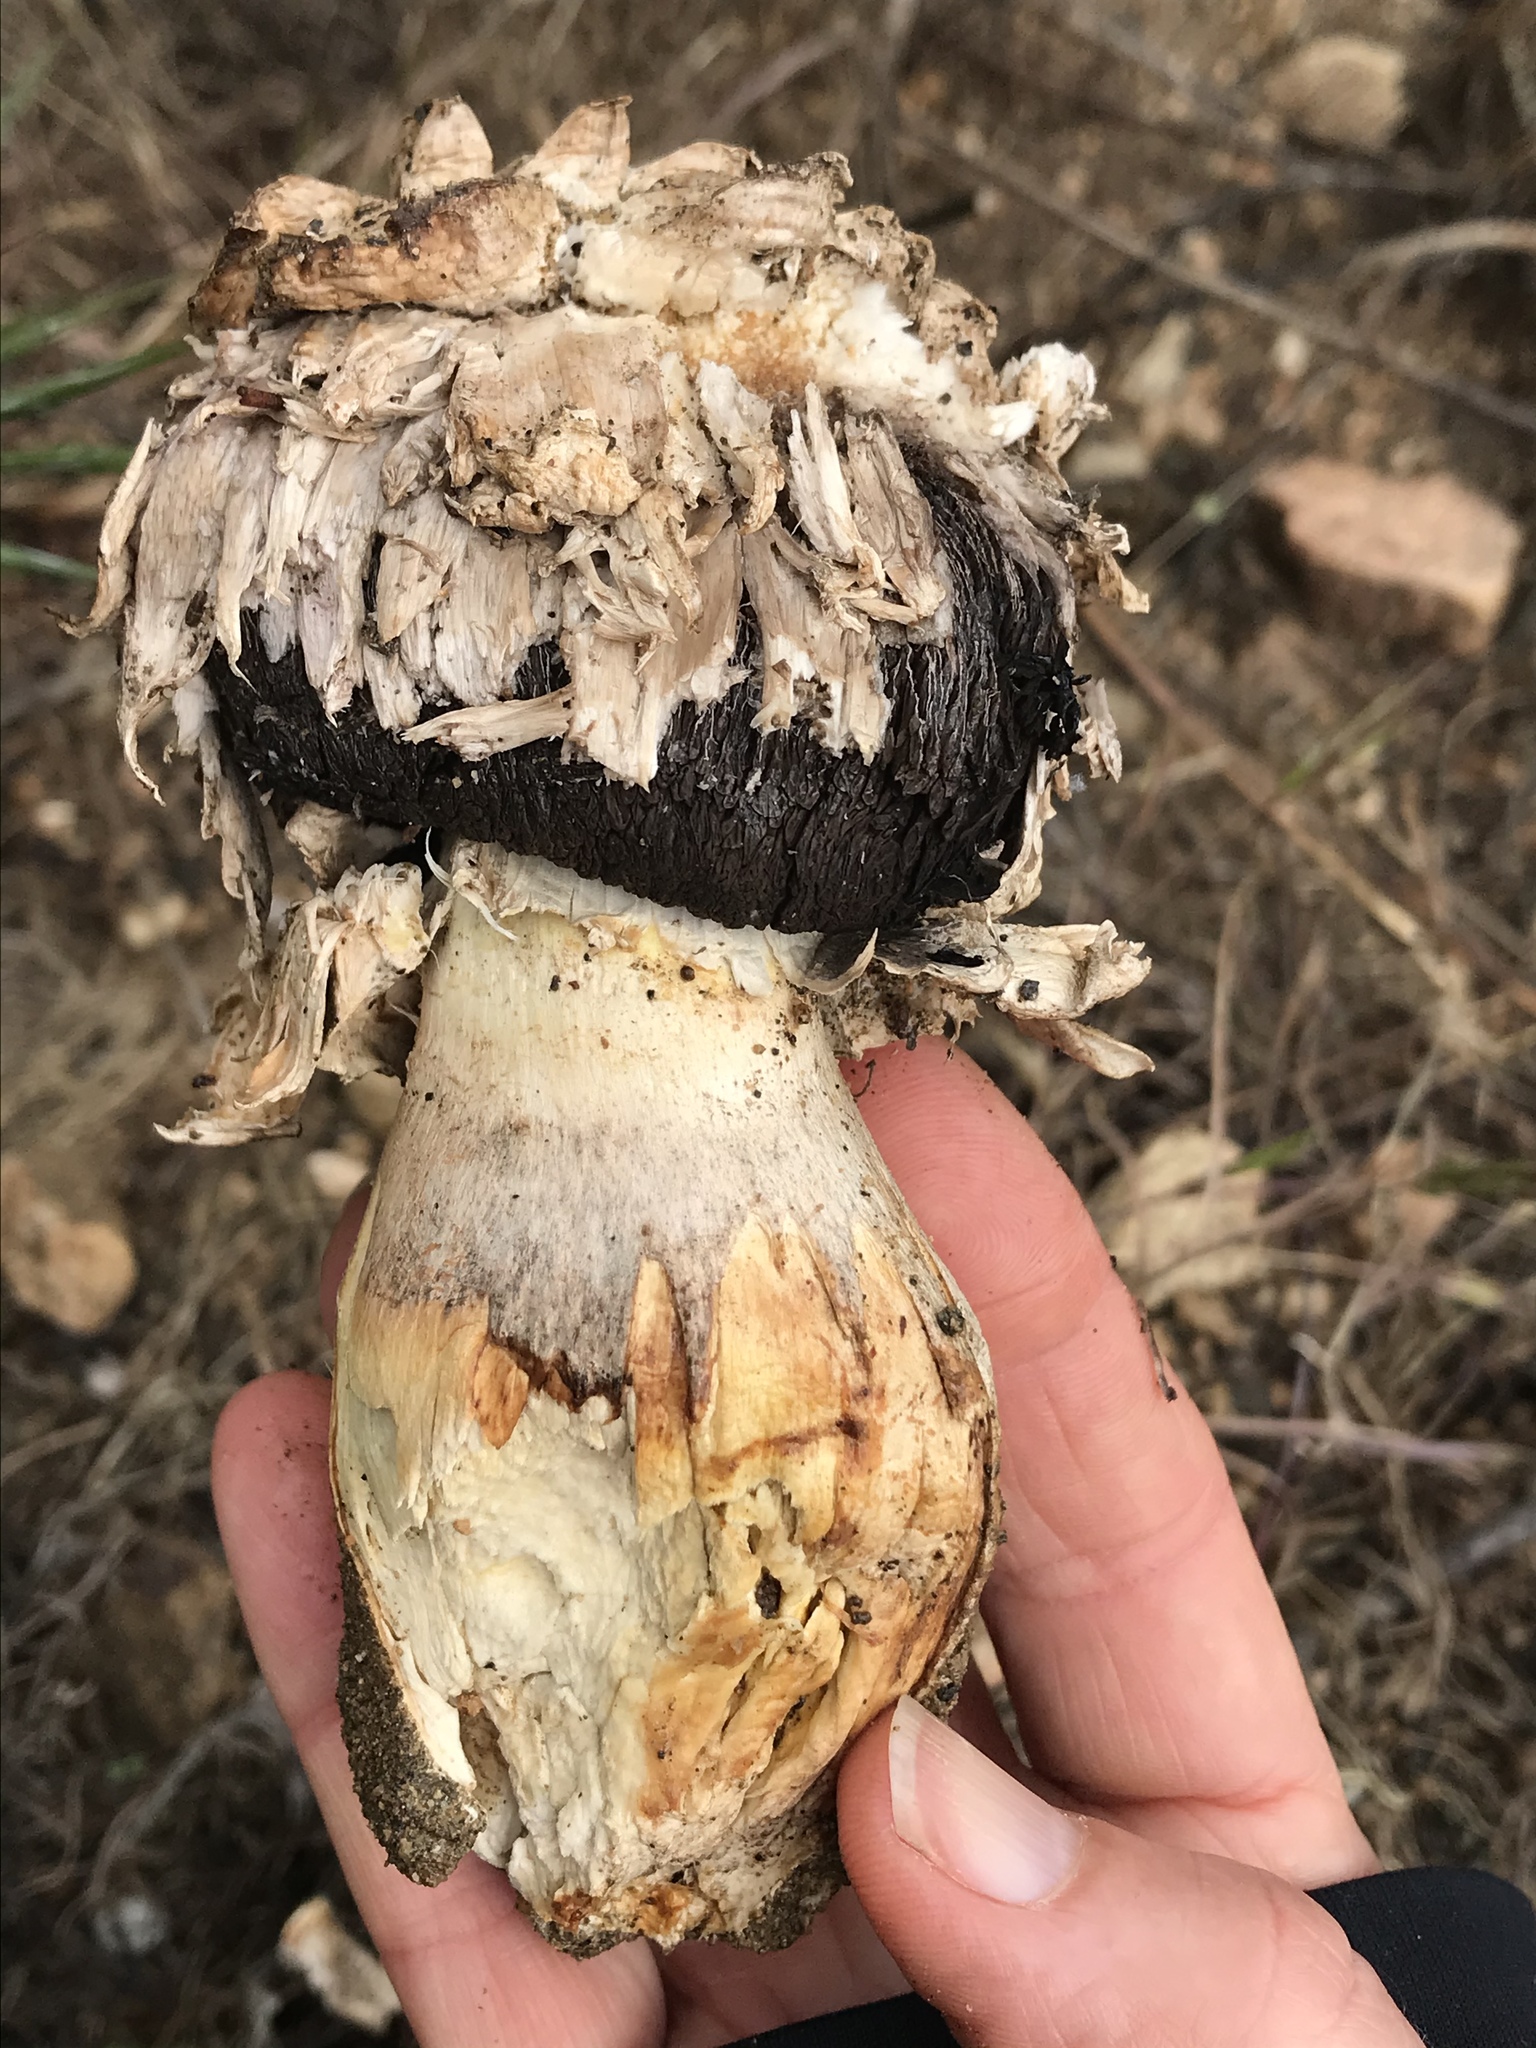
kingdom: Fungi
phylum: Basidiomycota
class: Agaricomycetes
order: Agaricales
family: Agaricaceae
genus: Agaricus
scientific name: Agaricus deserticola
